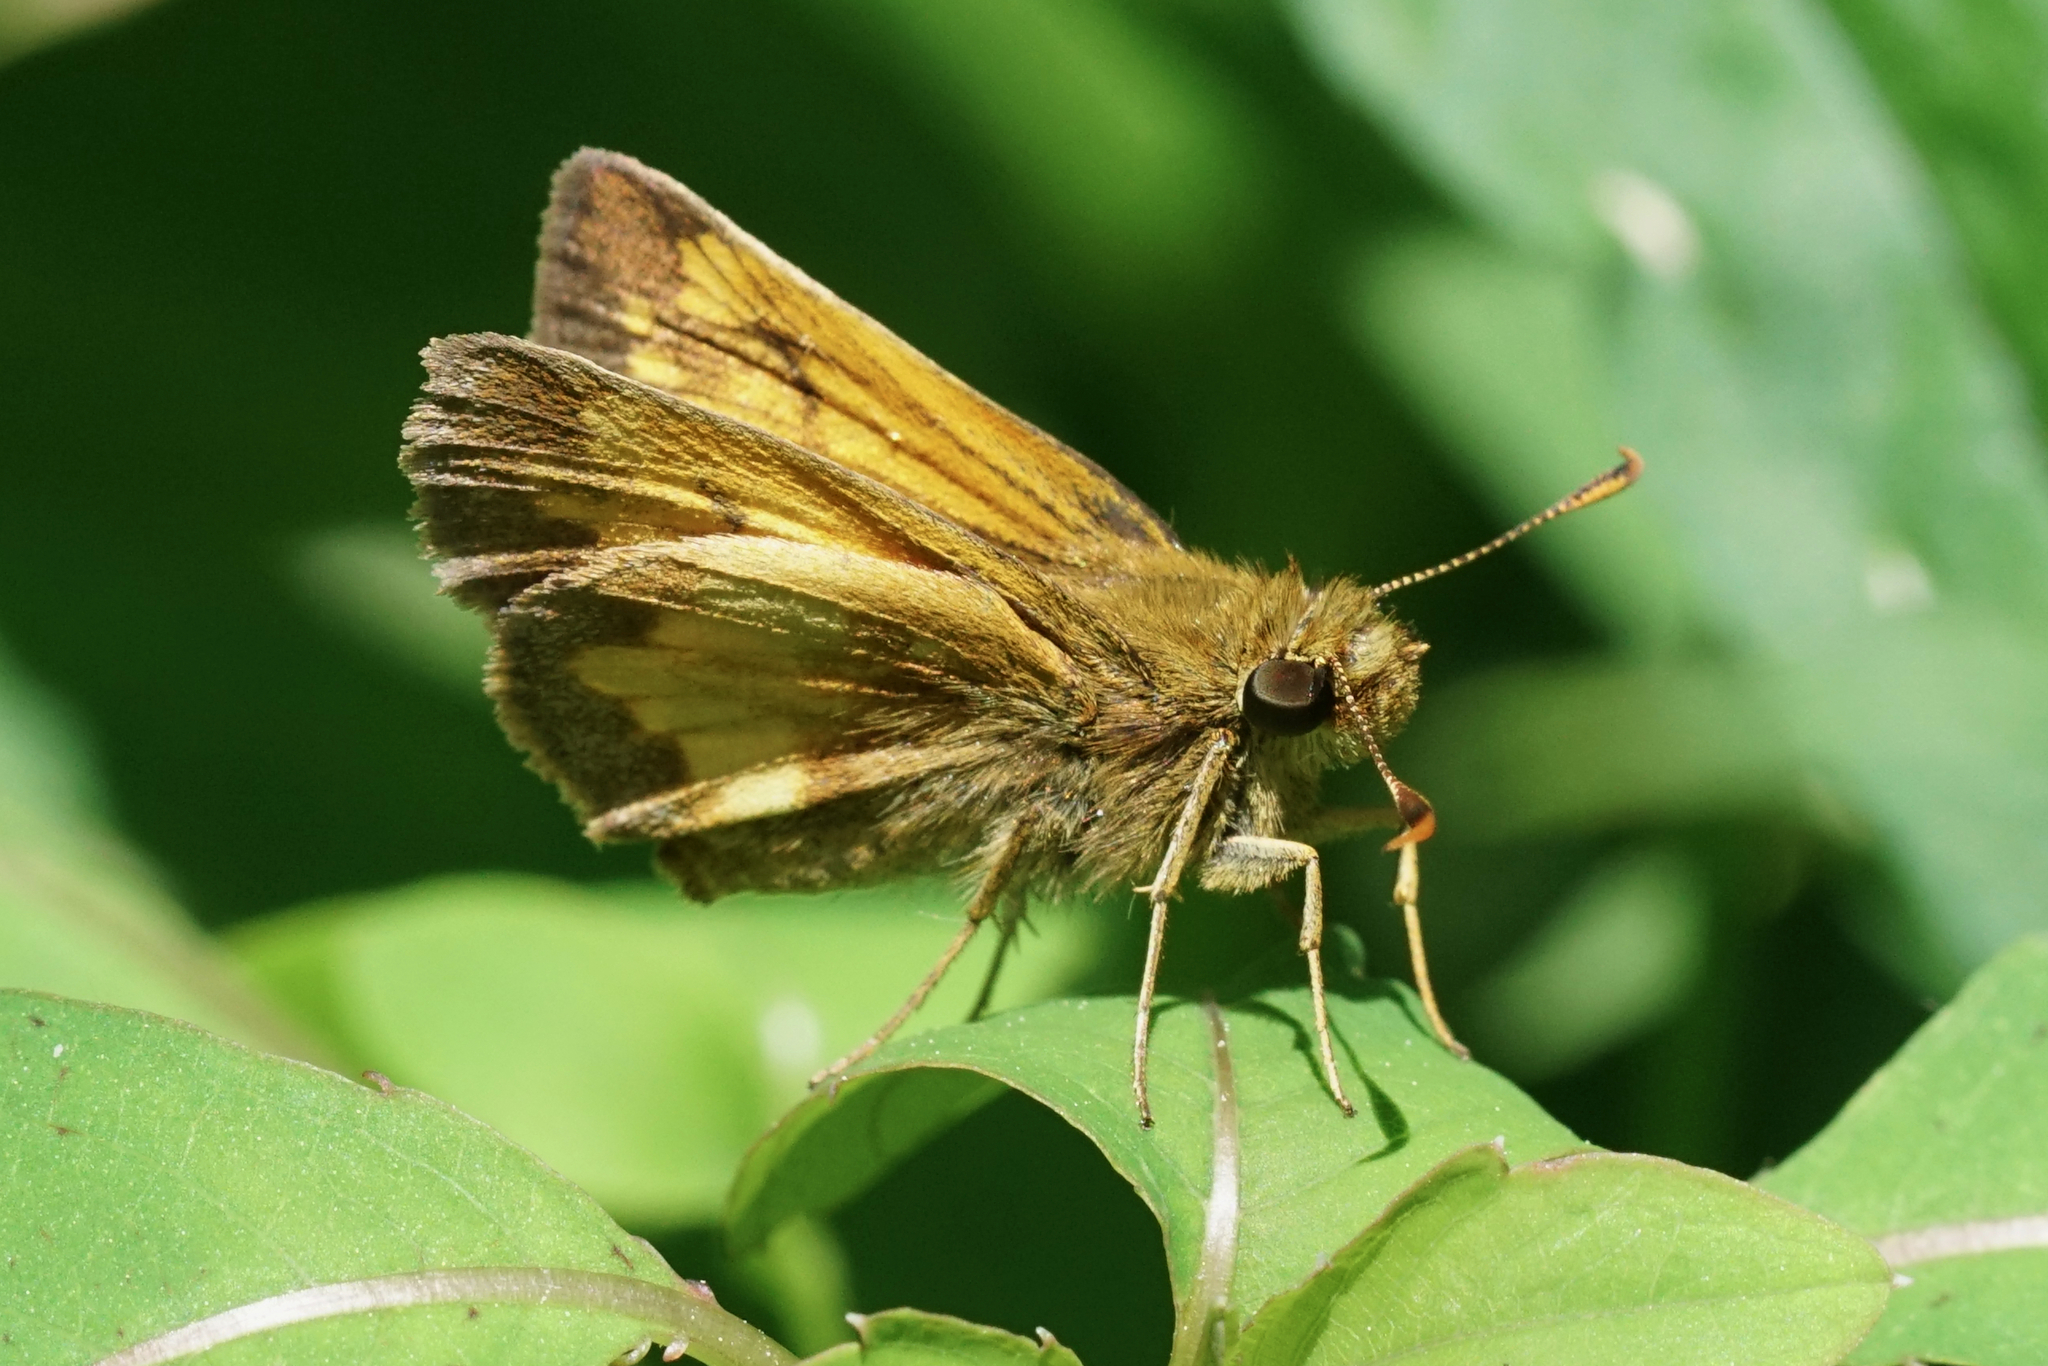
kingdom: Animalia
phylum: Arthropoda
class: Insecta
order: Lepidoptera
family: Hesperiidae
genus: Lon
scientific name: Lon hobomok
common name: Hobomok skipper
